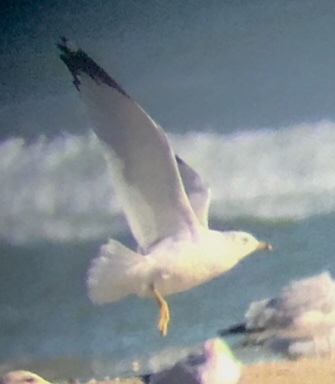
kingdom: Animalia
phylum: Chordata
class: Aves
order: Charadriiformes
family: Laridae
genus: Larus
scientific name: Larus delawarensis
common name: Ring-billed gull
